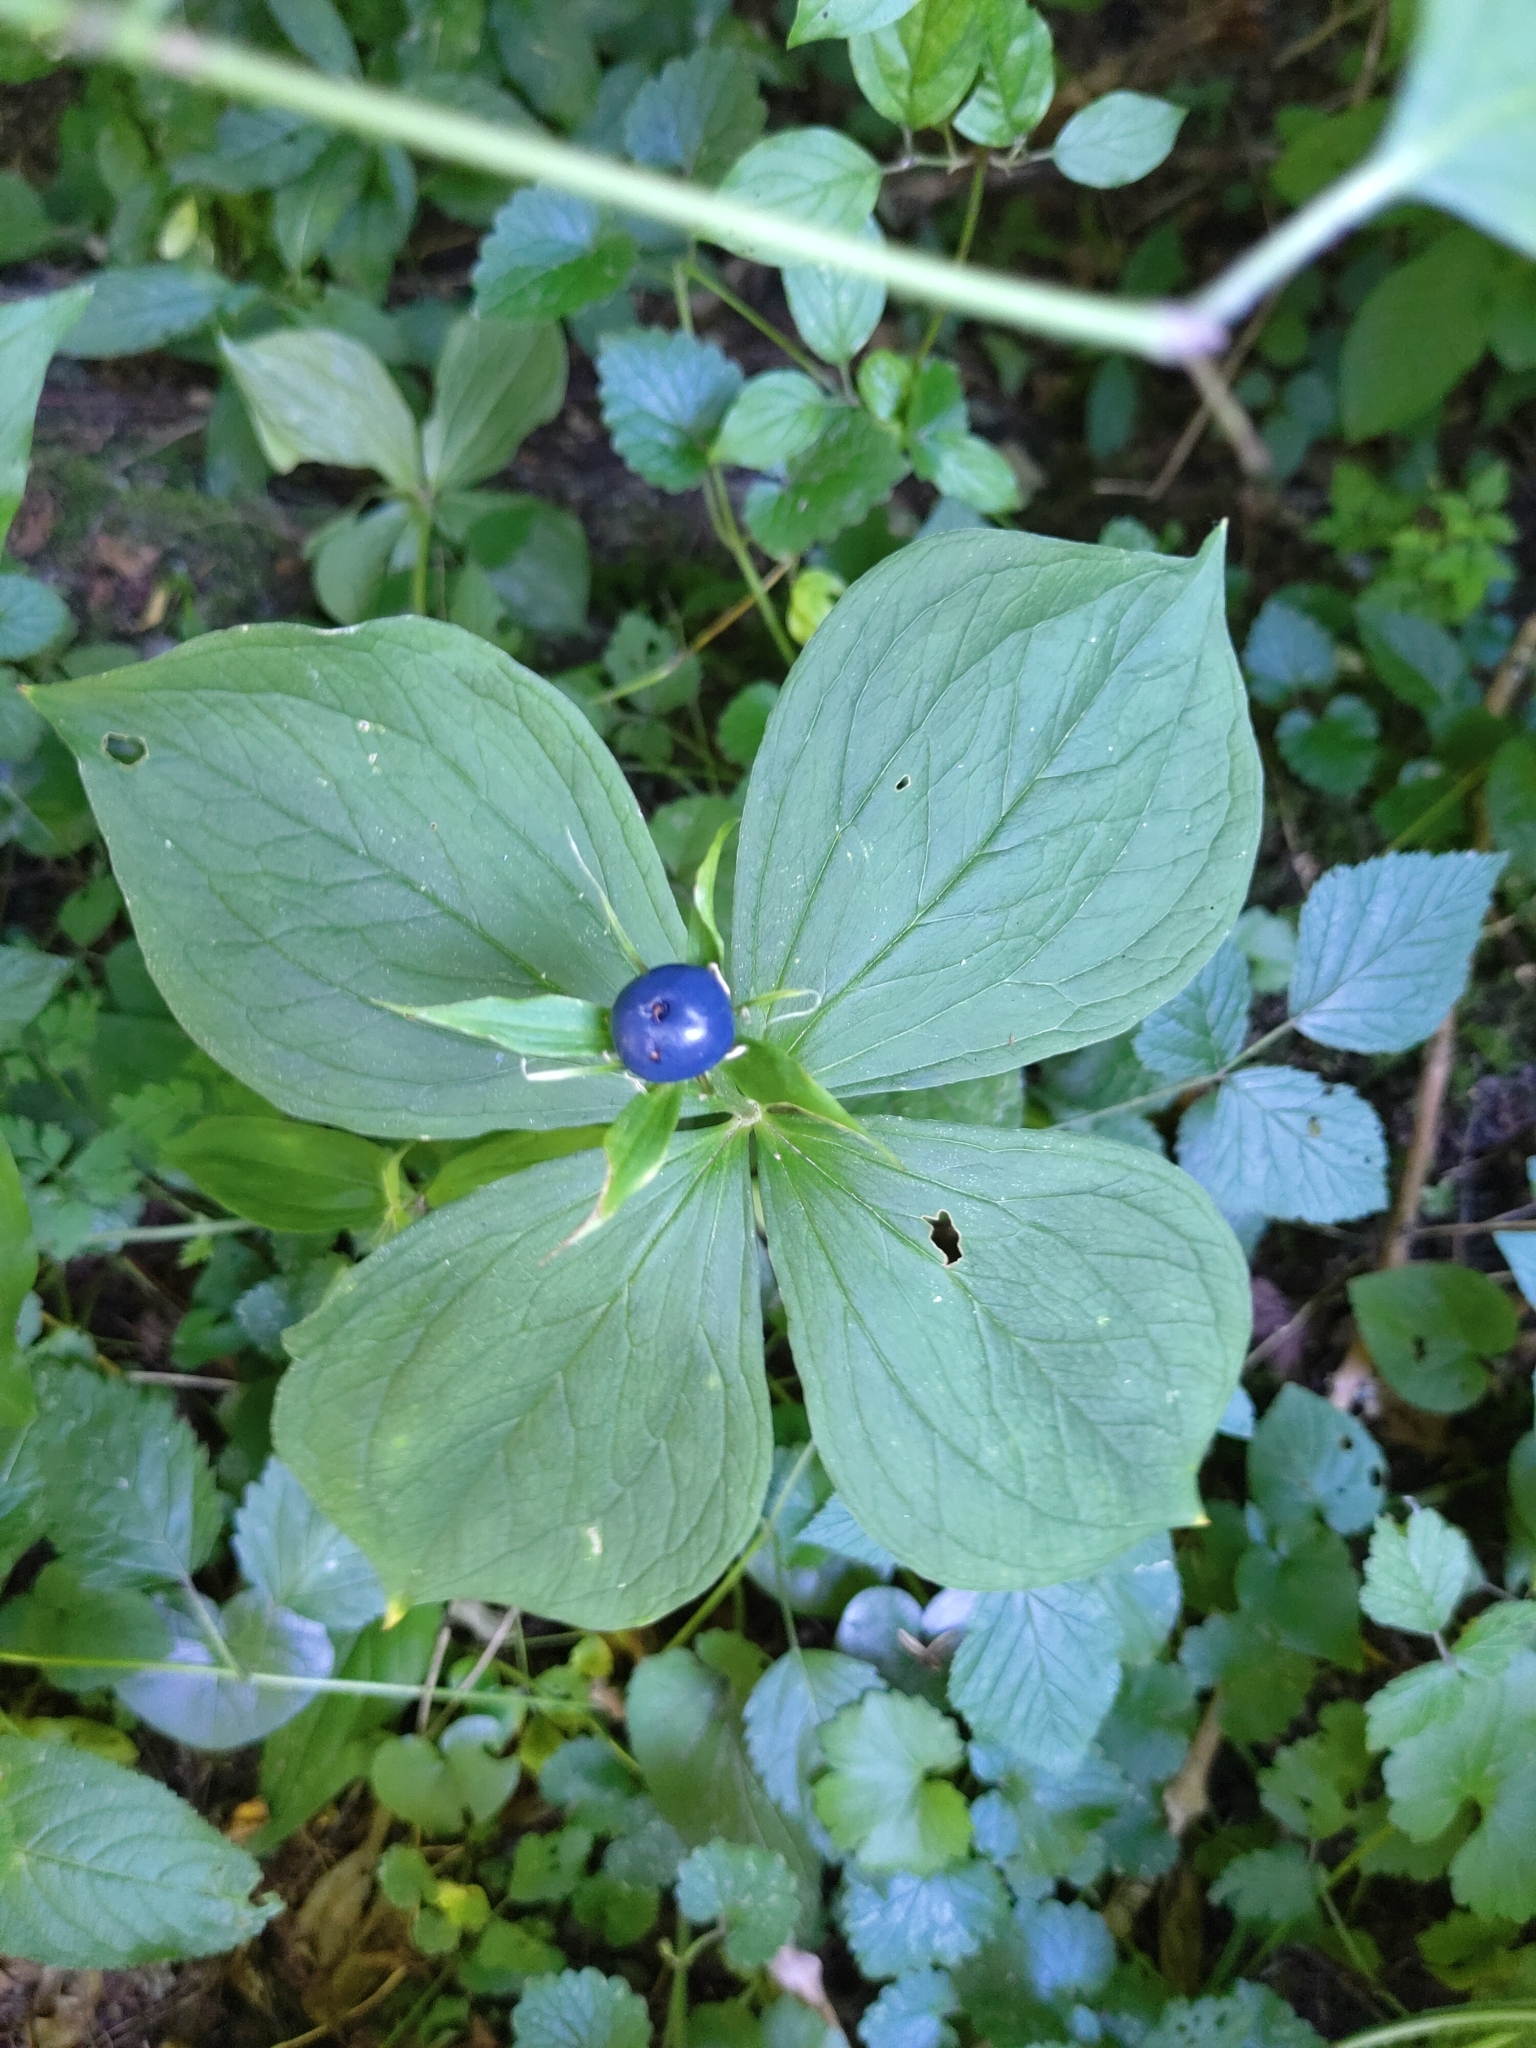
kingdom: Plantae
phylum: Tracheophyta
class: Liliopsida
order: Liliales
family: Melanthiaceae
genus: Paris
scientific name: Paris quadrifolia
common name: Herb-paris
